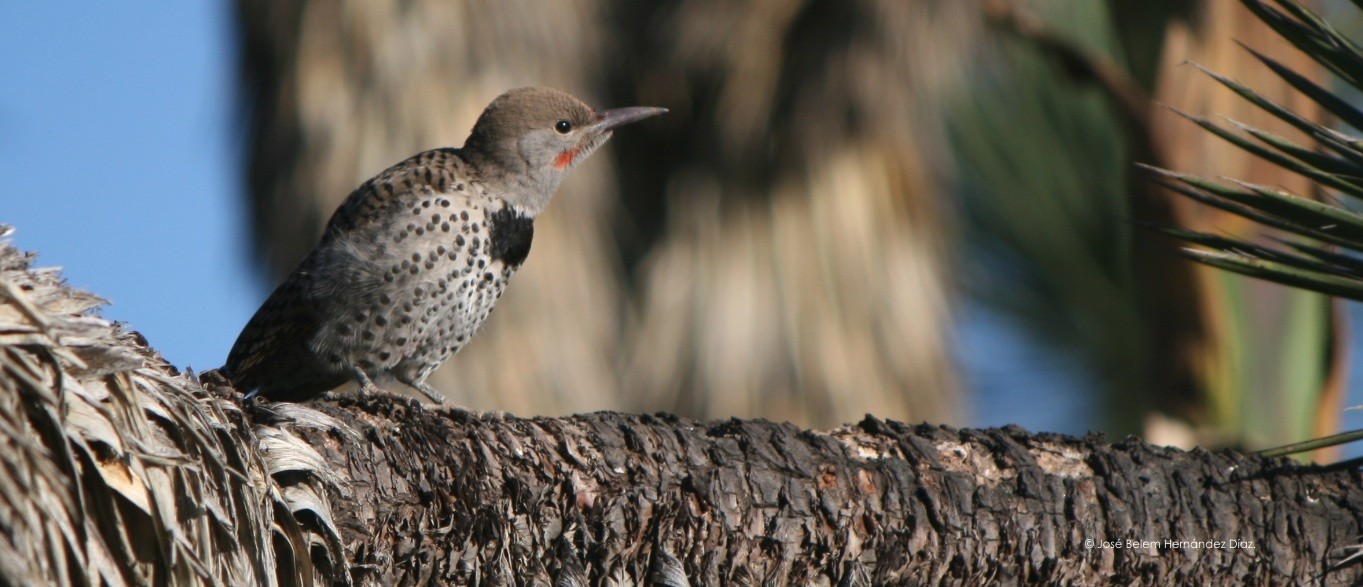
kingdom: Animalia
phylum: Chordata
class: Aves
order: Piciformes
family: Picidae
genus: Colaptes
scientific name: Colaptes auratus
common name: Northern flicker
